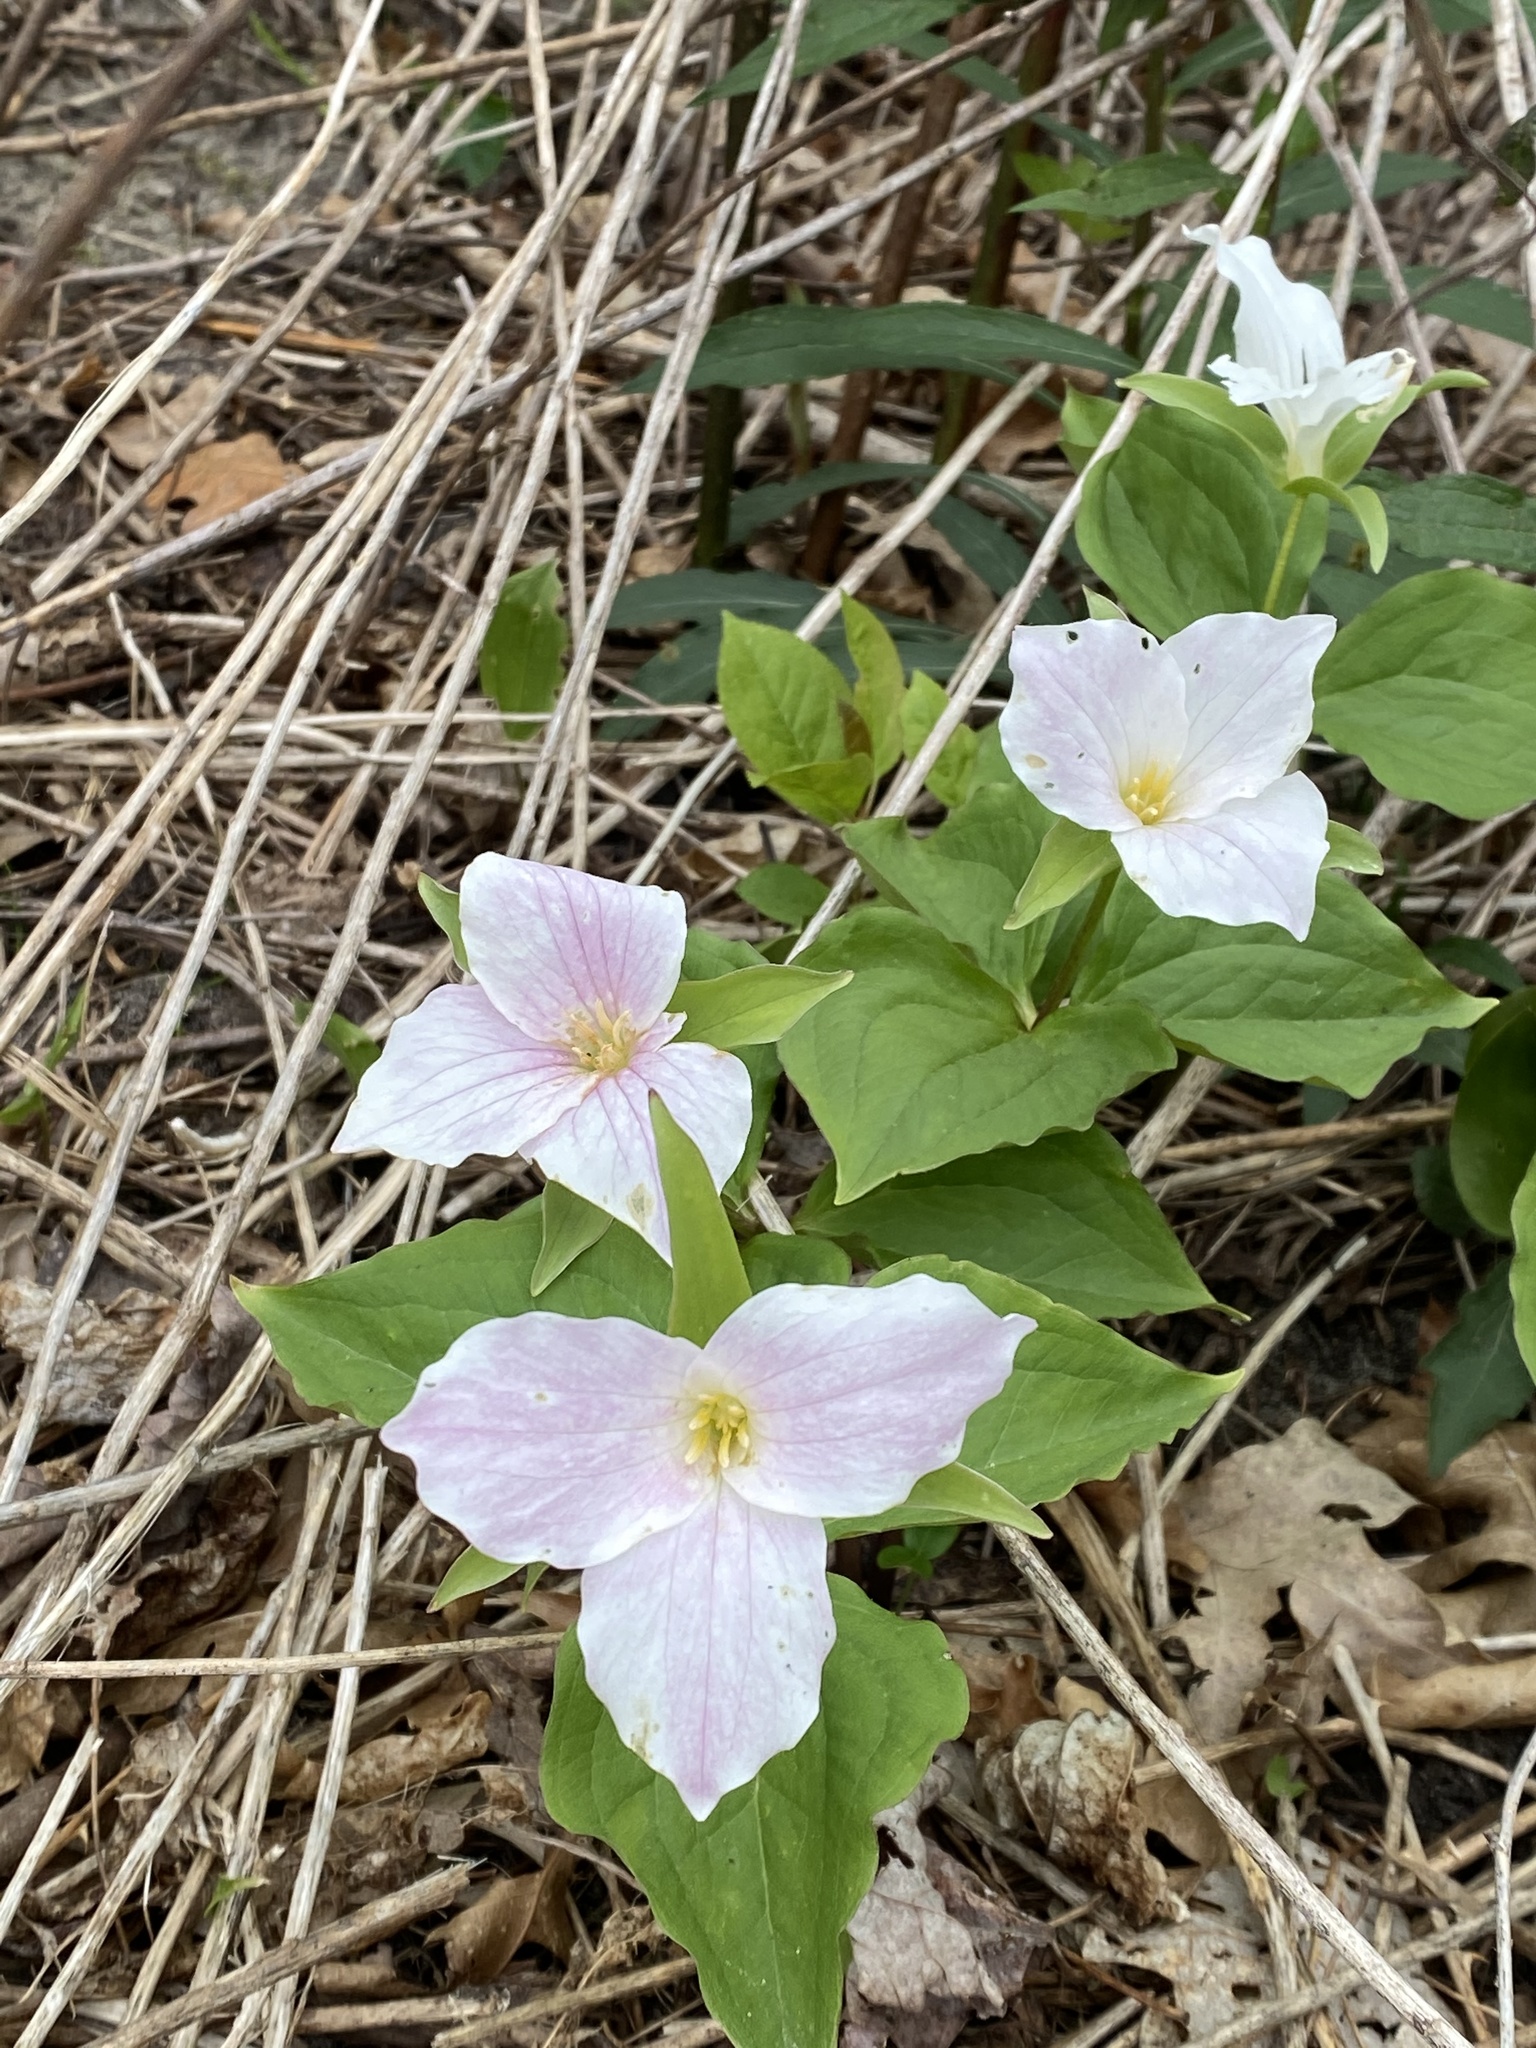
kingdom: Plantae
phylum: Tracheophyta
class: Liliopsida
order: Liliales
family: Melanthiaceae
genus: Trillium
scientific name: Trillium grandiflorum
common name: Great white trillium
